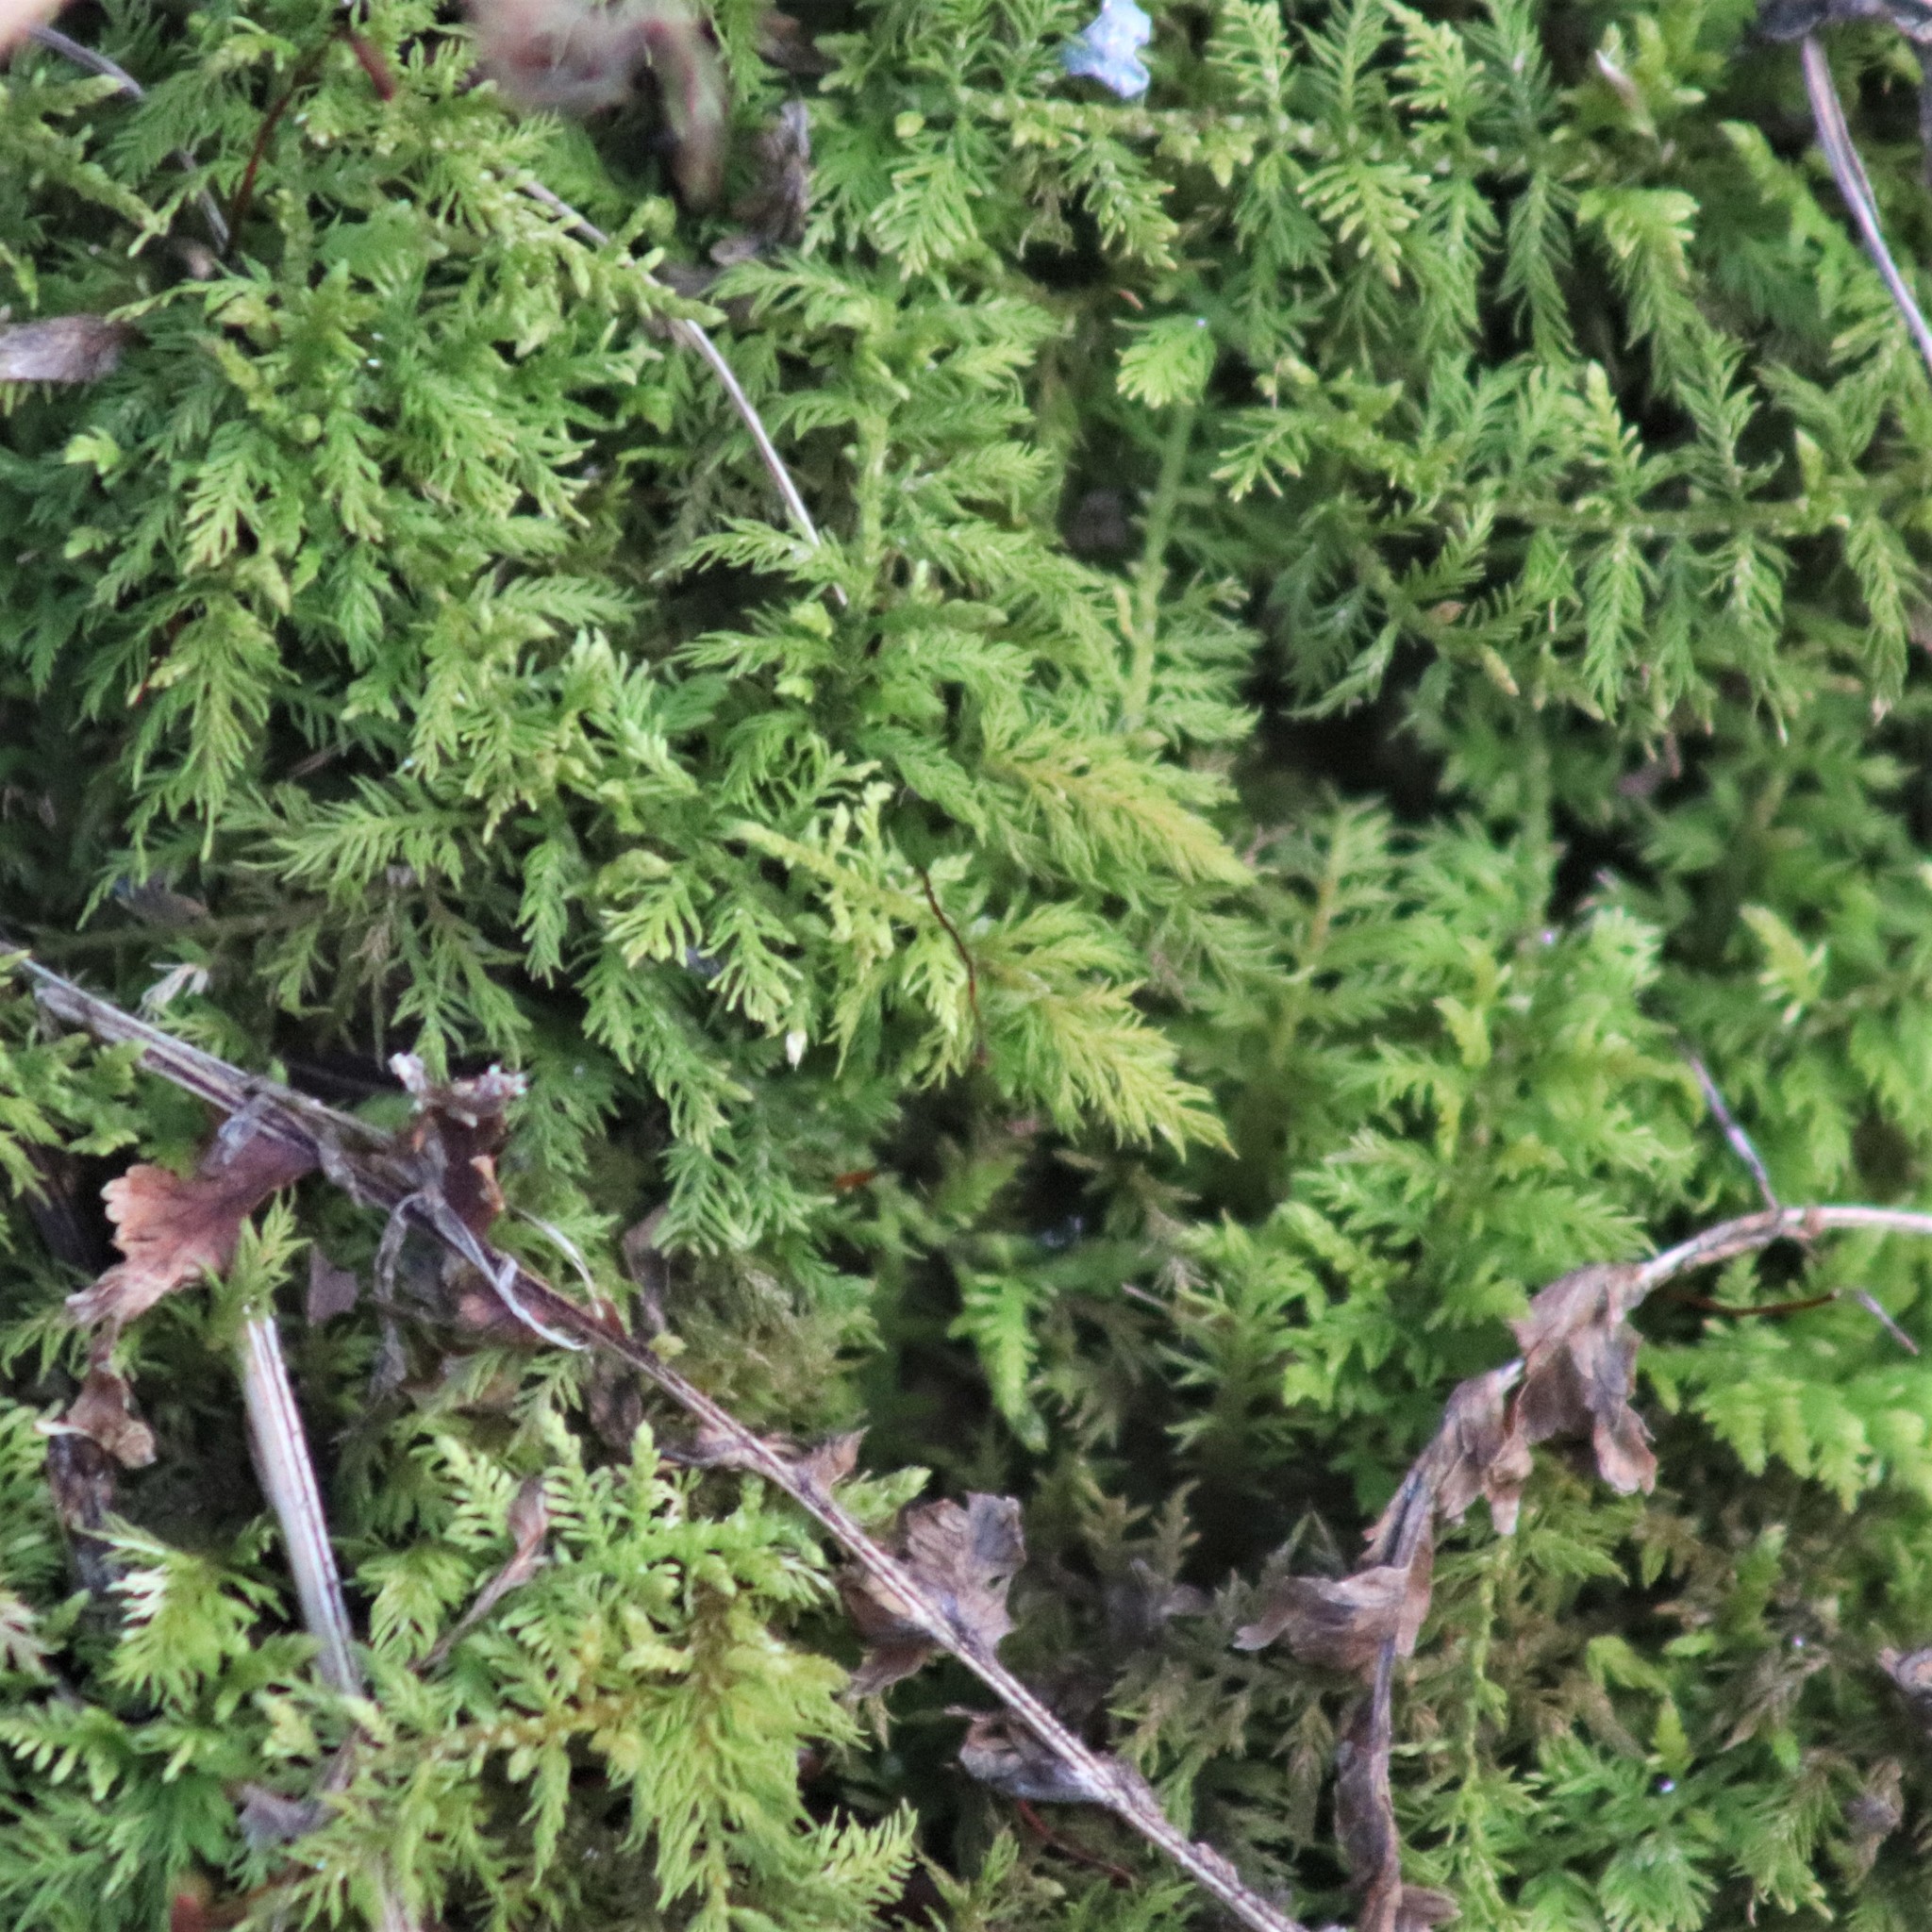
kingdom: Plantae
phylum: Bryophyta
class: Bryopsida
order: Hypnales
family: Thuidiaceae
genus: Thuidium
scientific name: Thuidium delicatulum
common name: Delicate fern moss
